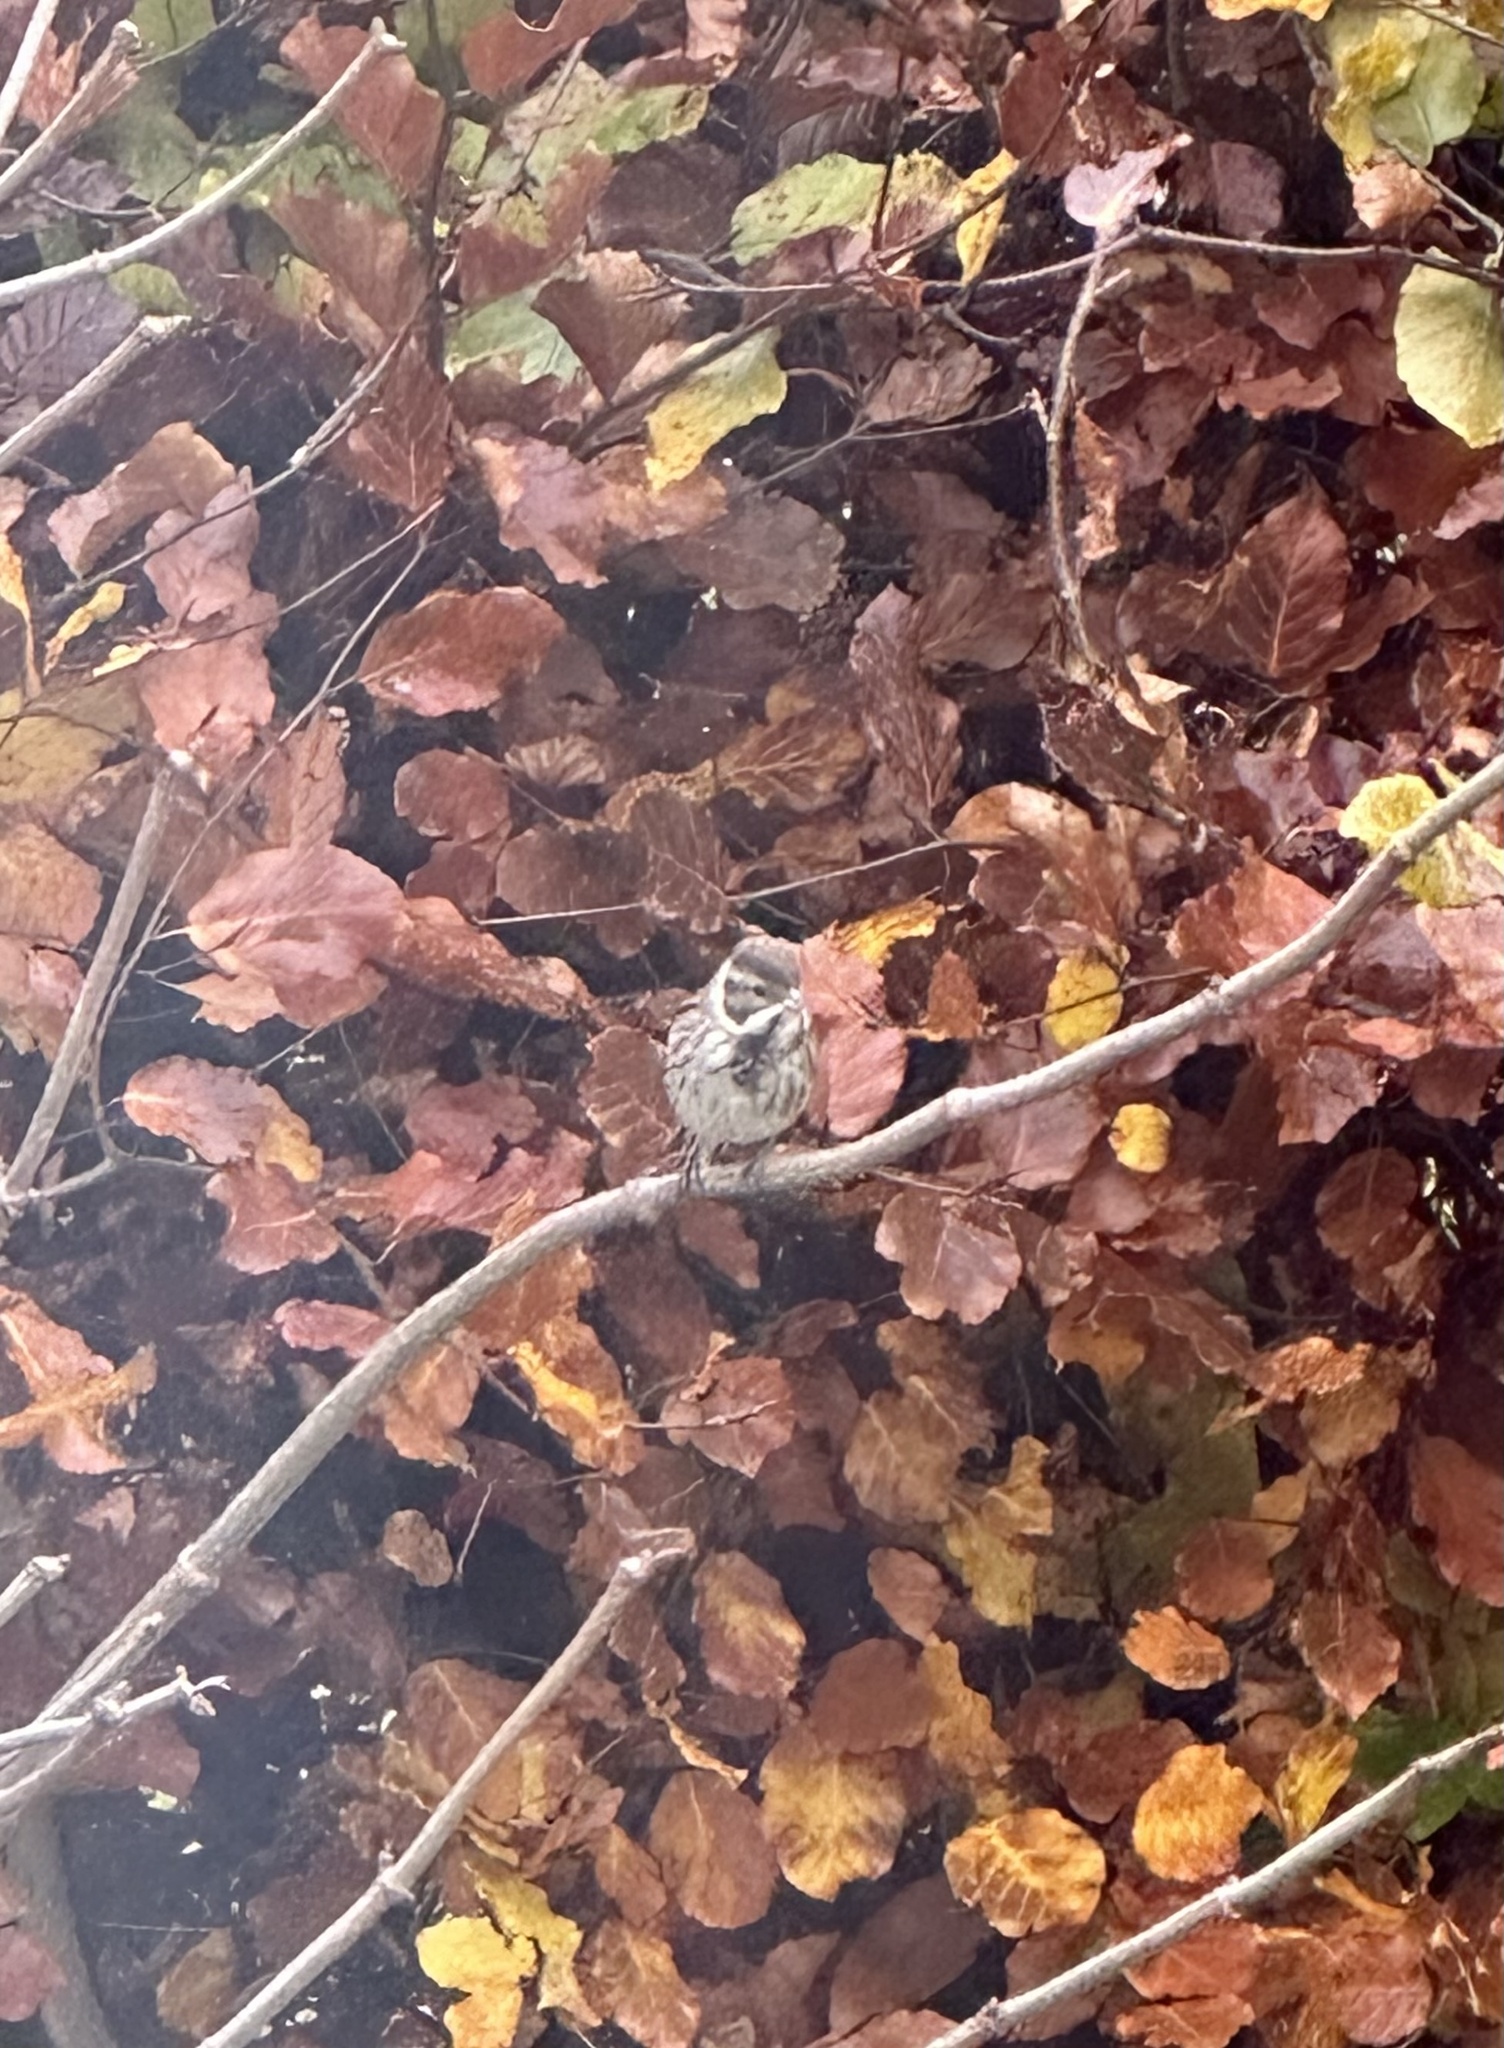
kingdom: Animalia
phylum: Chordata
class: Aves
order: Passeriformes
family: Emberizidae
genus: Emberiza
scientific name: Emberiza schoeniclus
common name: Reed bunting
